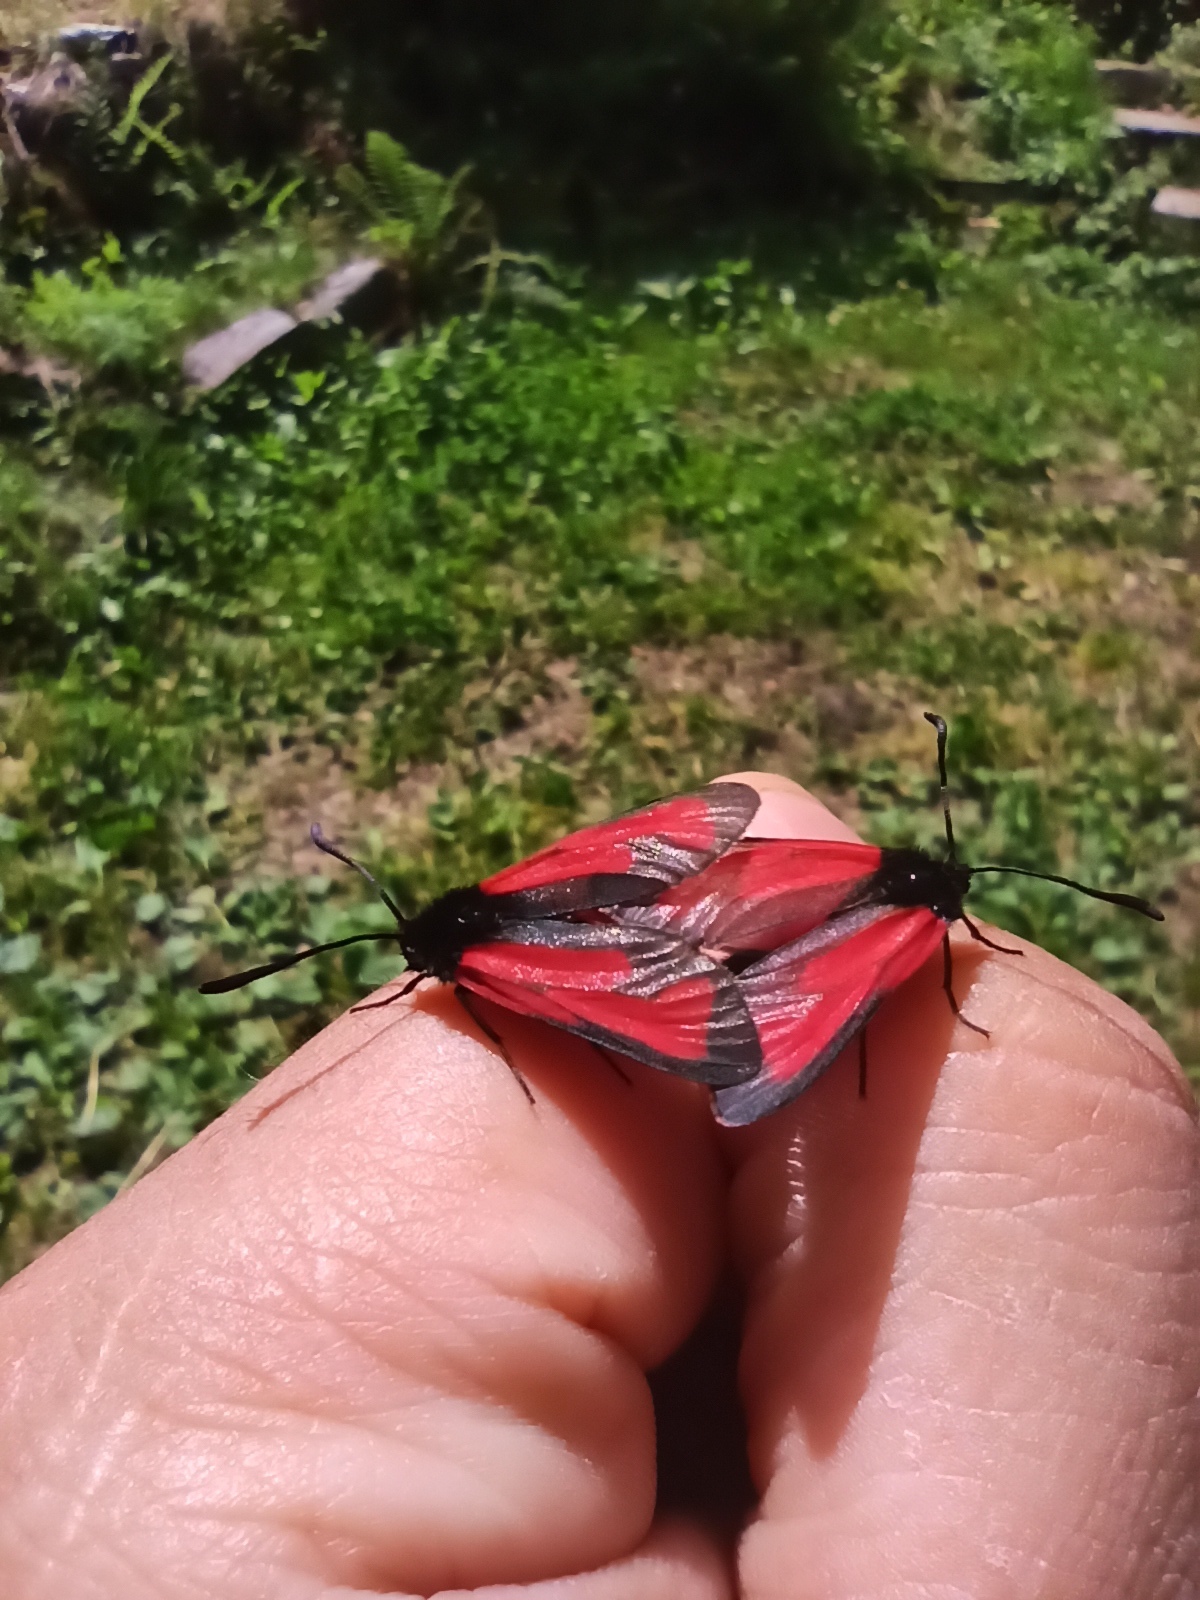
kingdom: Animalia
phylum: Arthropoda
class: Insecta
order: Lepidoptera
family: Zygaenidae
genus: Zygaena
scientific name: Zygaena purpuralis
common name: Transparent burnet
